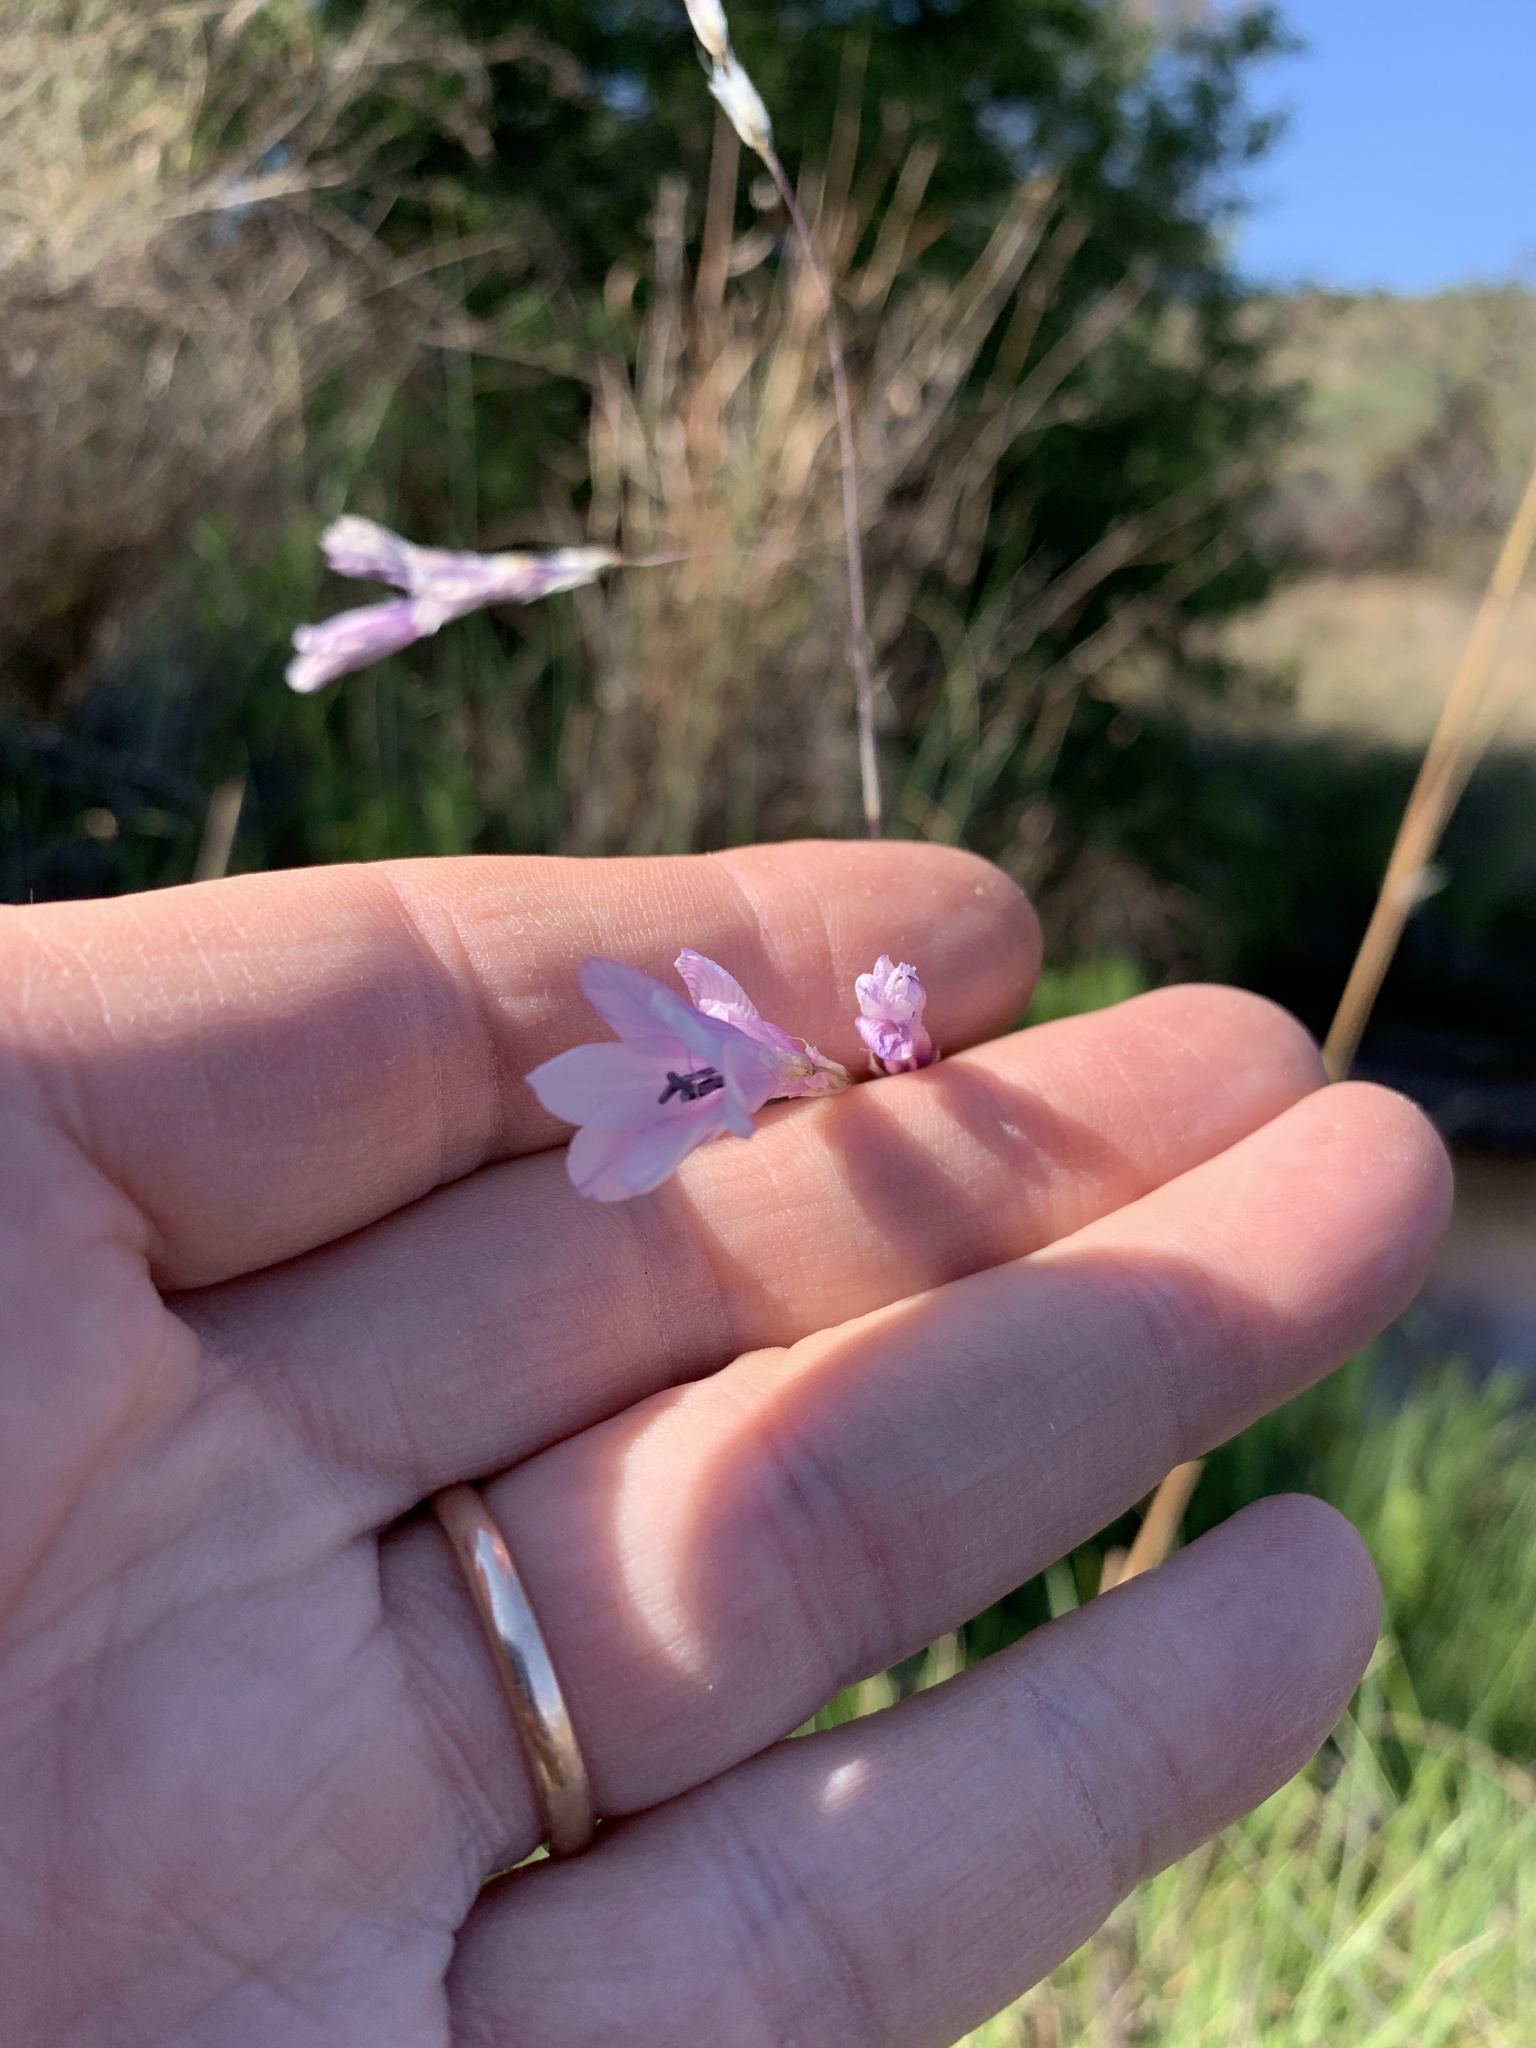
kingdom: Plantae
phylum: Tracheophyta
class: Liliopsida
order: Asparagales
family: Iridaceae
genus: Dierama
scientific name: Dierama mossii
